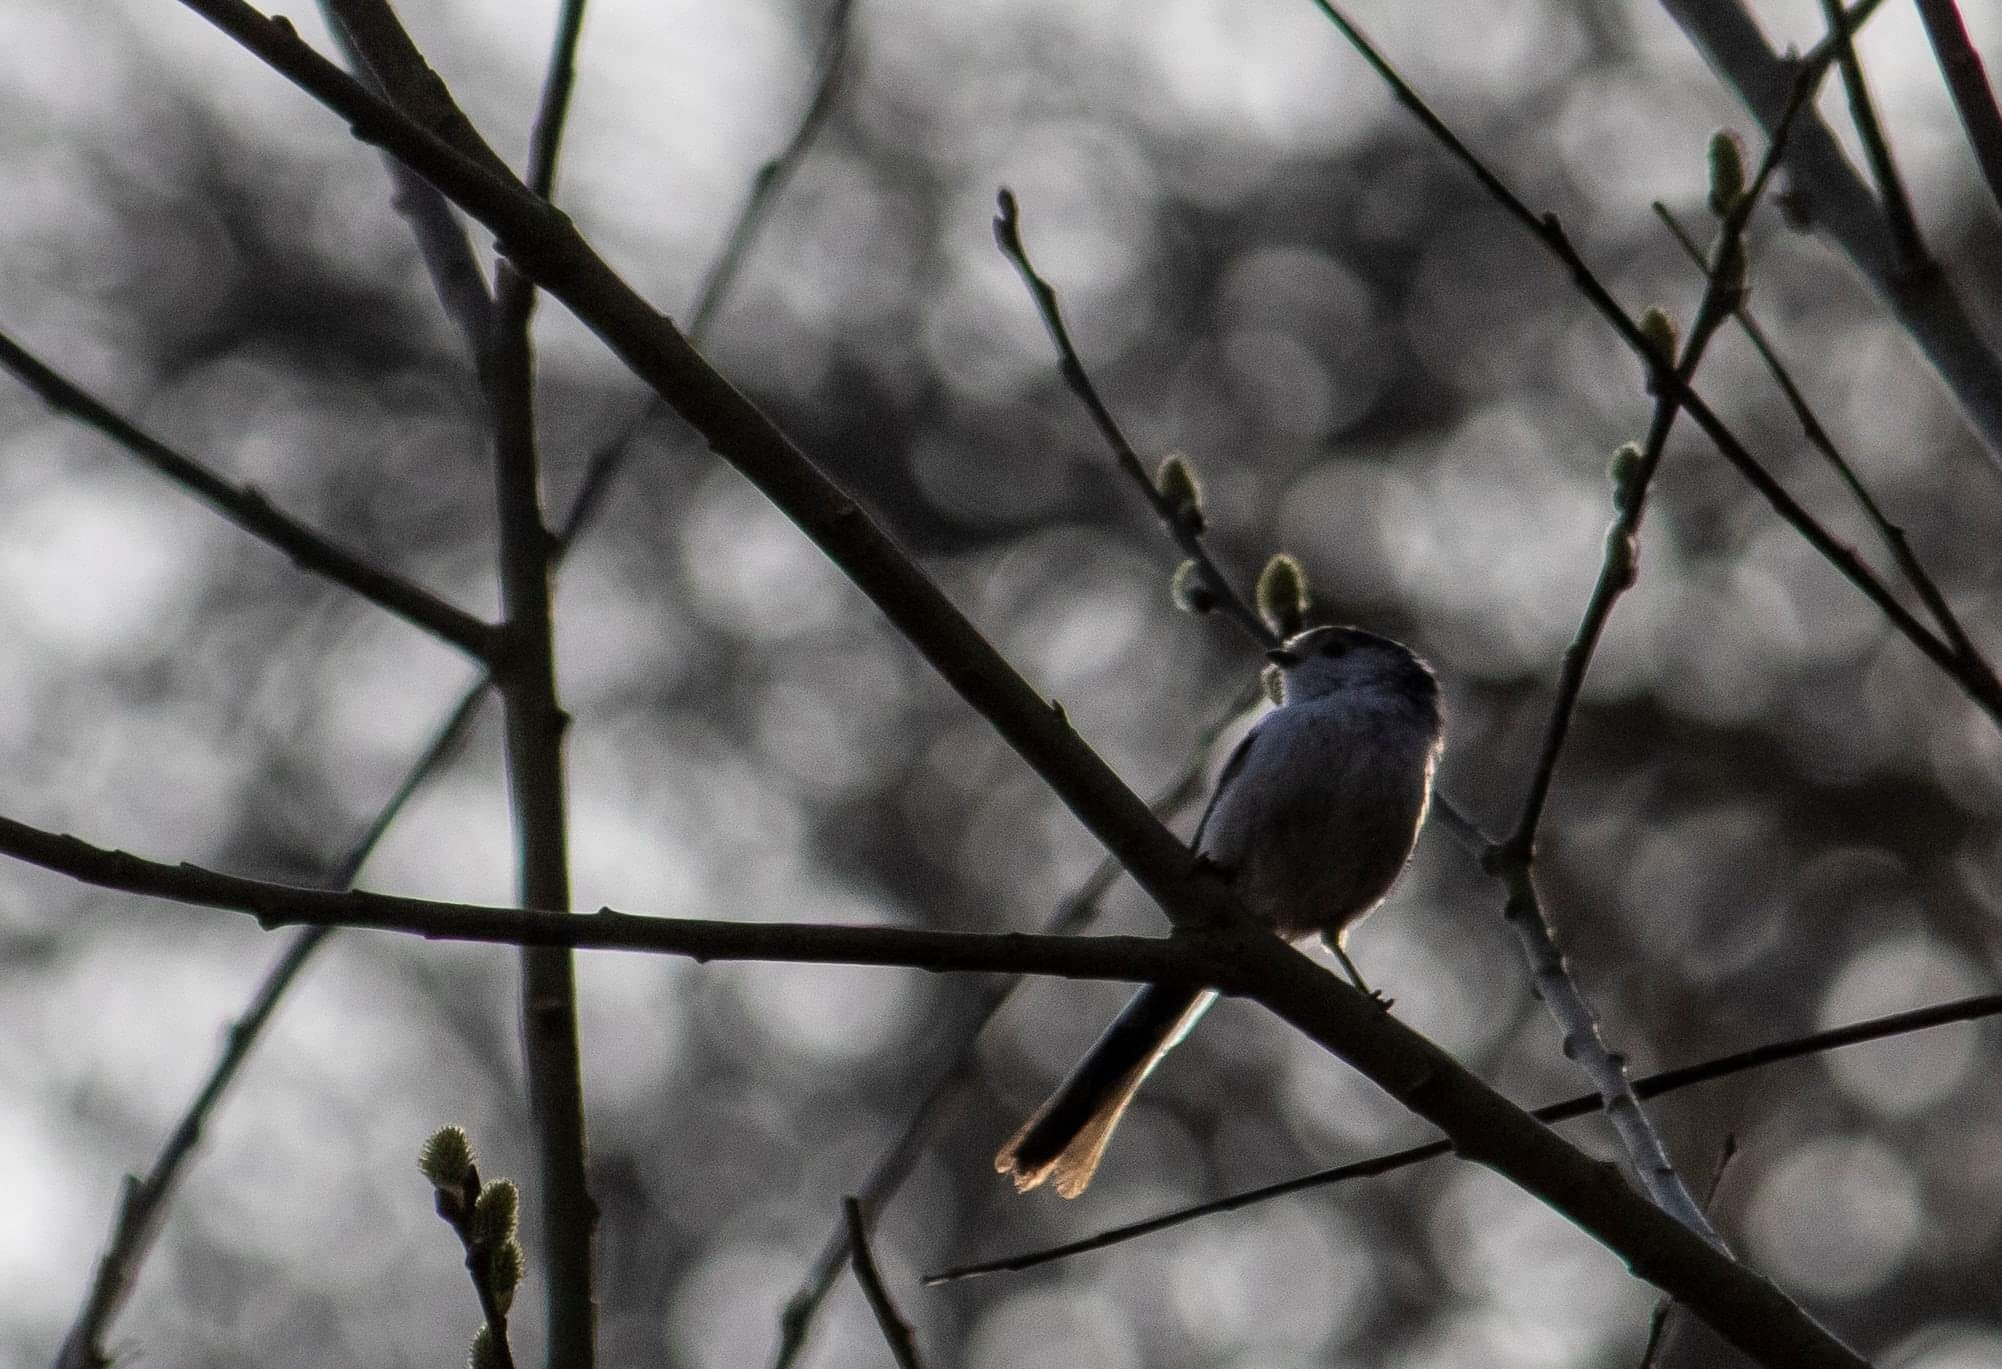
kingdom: Animalia
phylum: Chordata
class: Aves
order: Passeriformes
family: Aegithalidae
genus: Aegithalos
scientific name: Aegithalos caudatus
